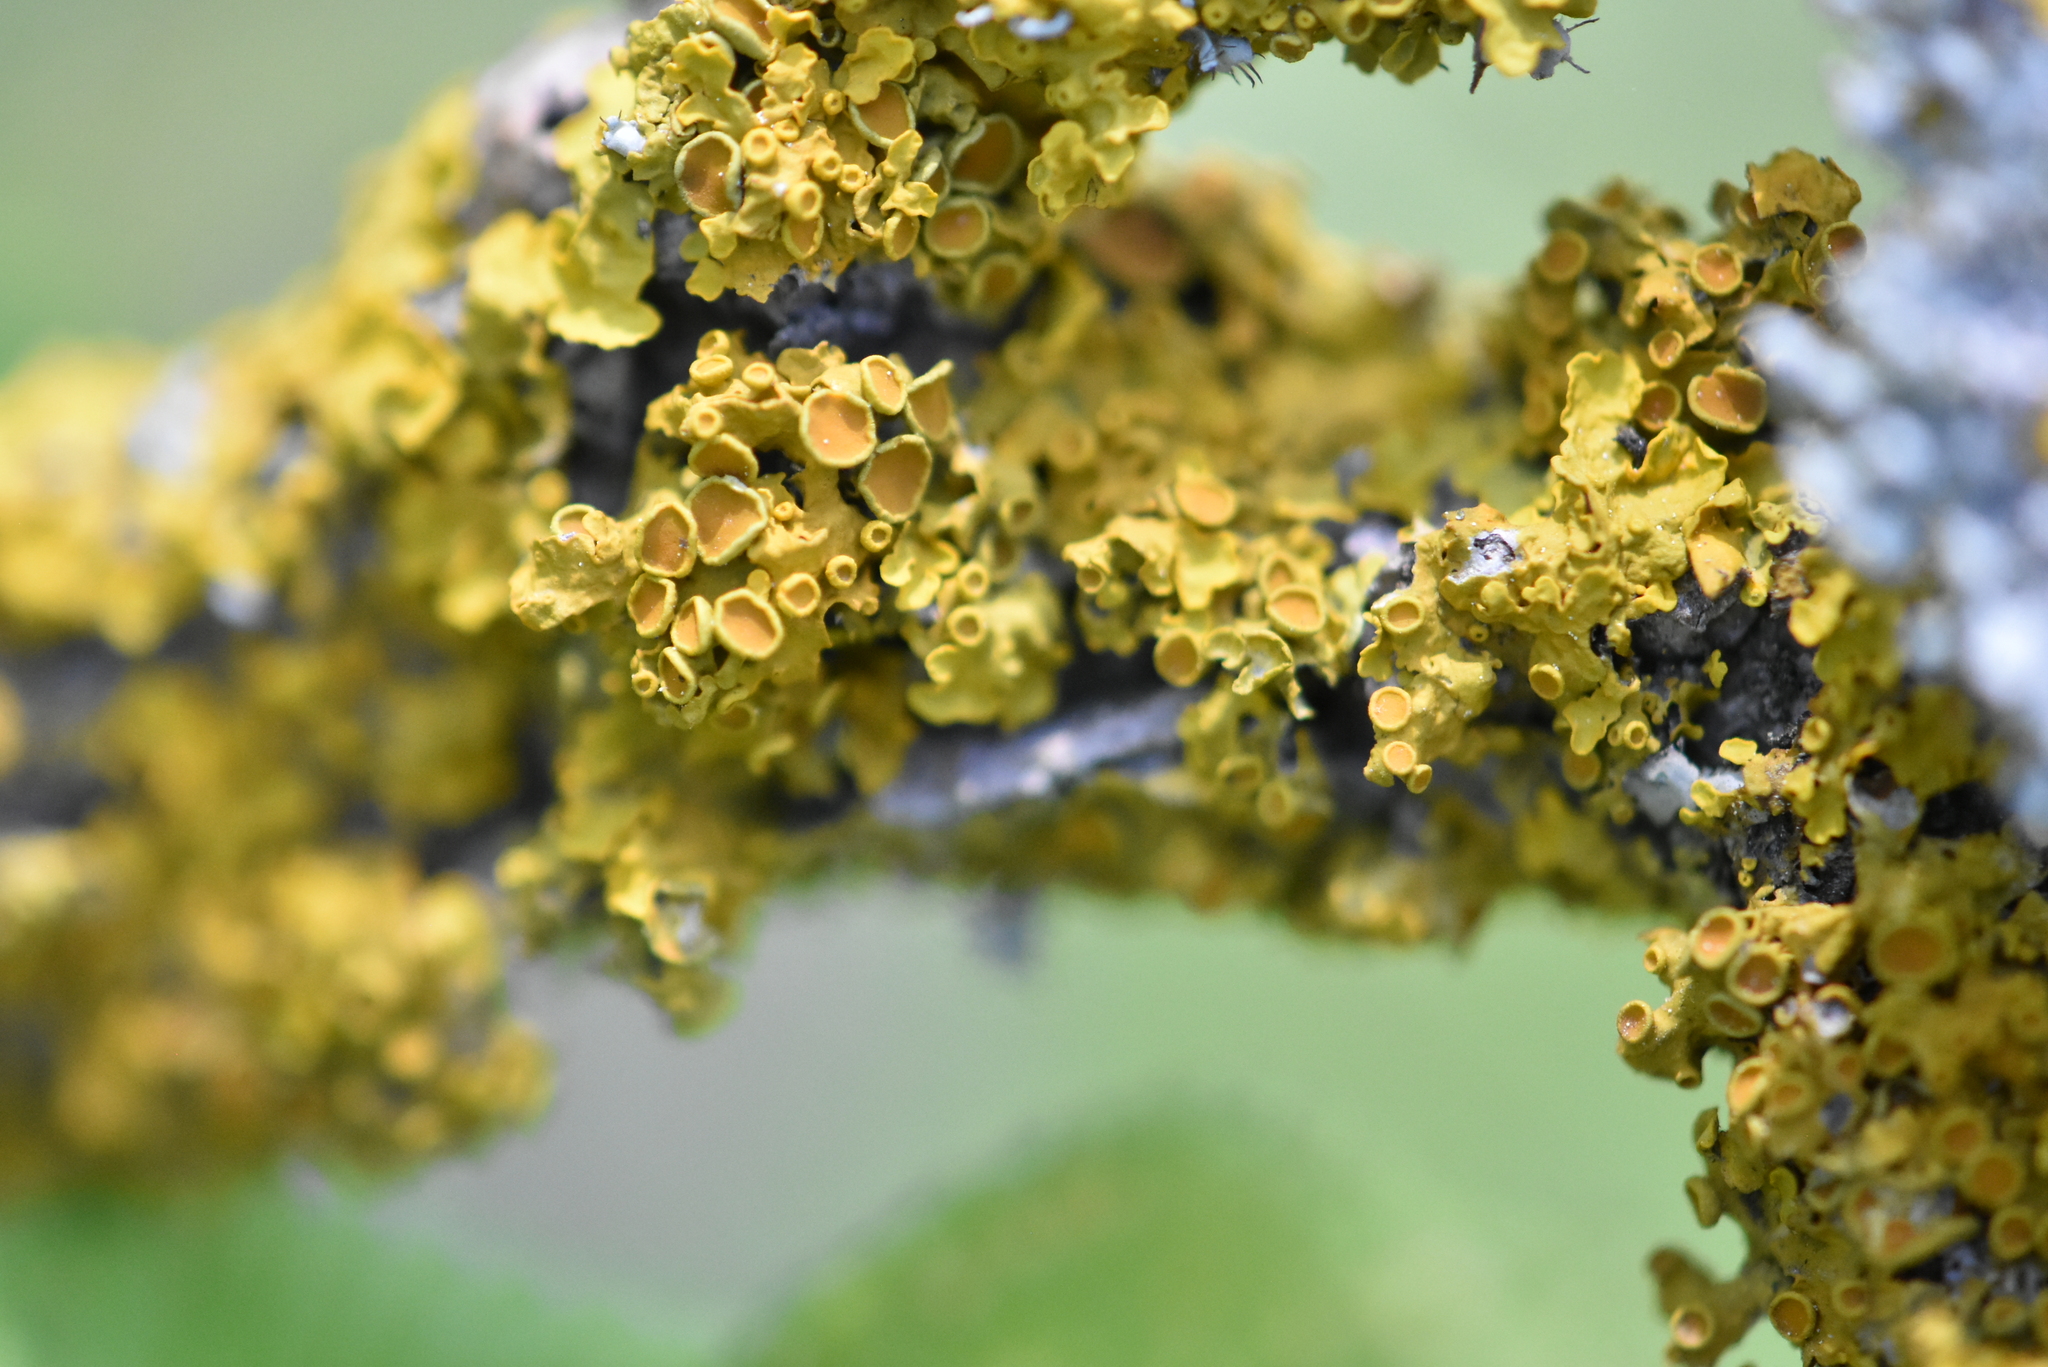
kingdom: Fungi
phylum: Ascomycota
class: Lecanoromycetes
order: Teloschistales
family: Teloschistaceae
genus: Xanthoria
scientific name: Xanthoria parietina
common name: Common orange lichen
